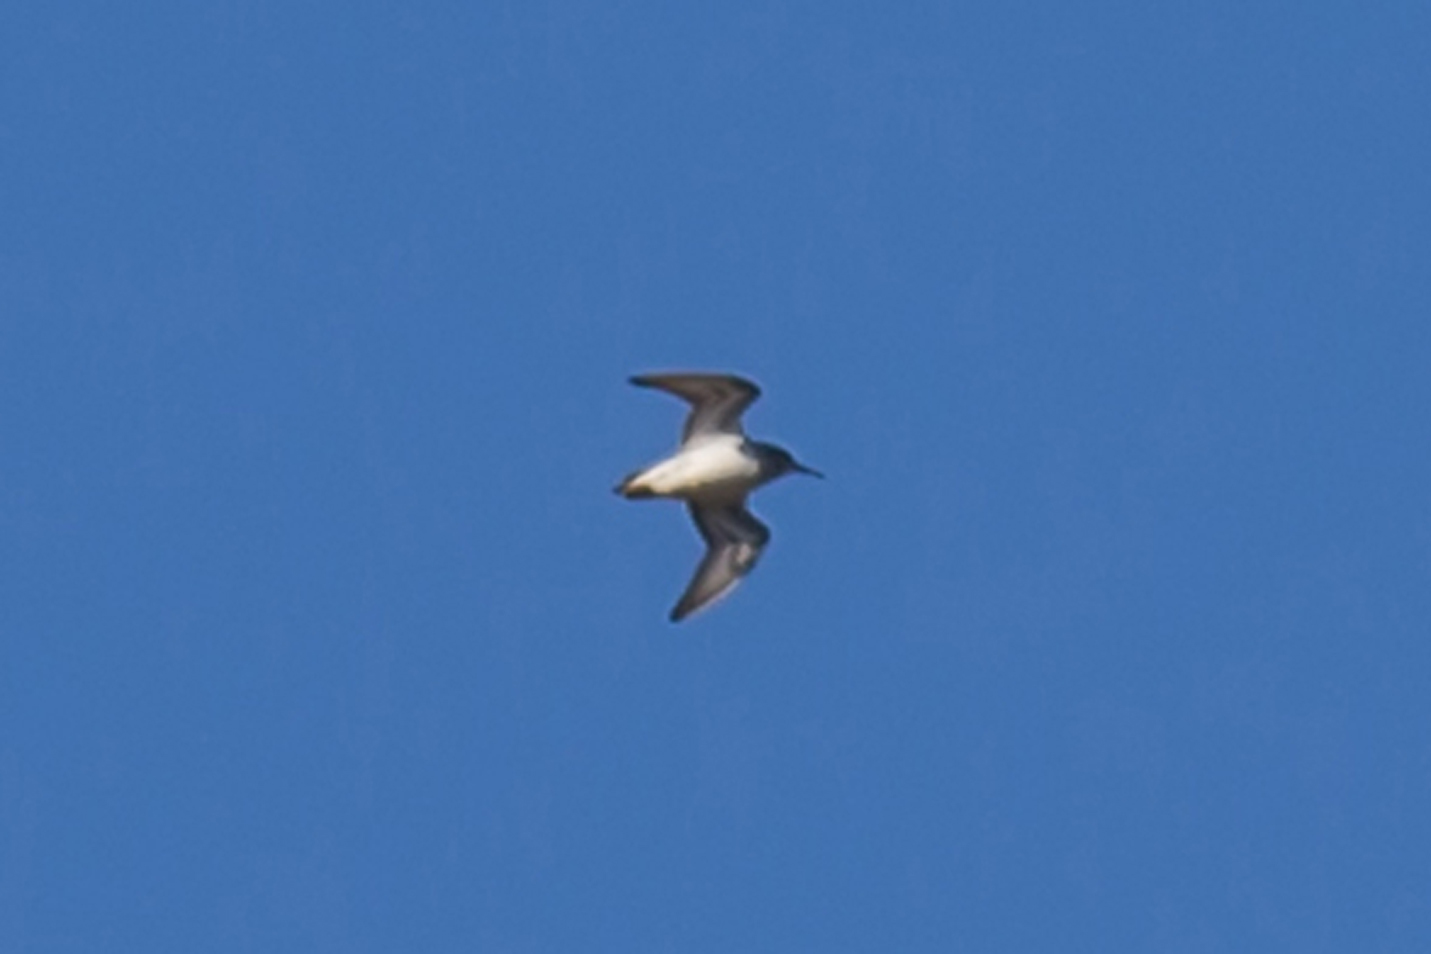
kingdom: Animalia
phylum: Chordata
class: Aves
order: Charadriiformes
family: Scolopacidae
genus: Calidris
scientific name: Calidris melanotos
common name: Pectoral sandpiper
